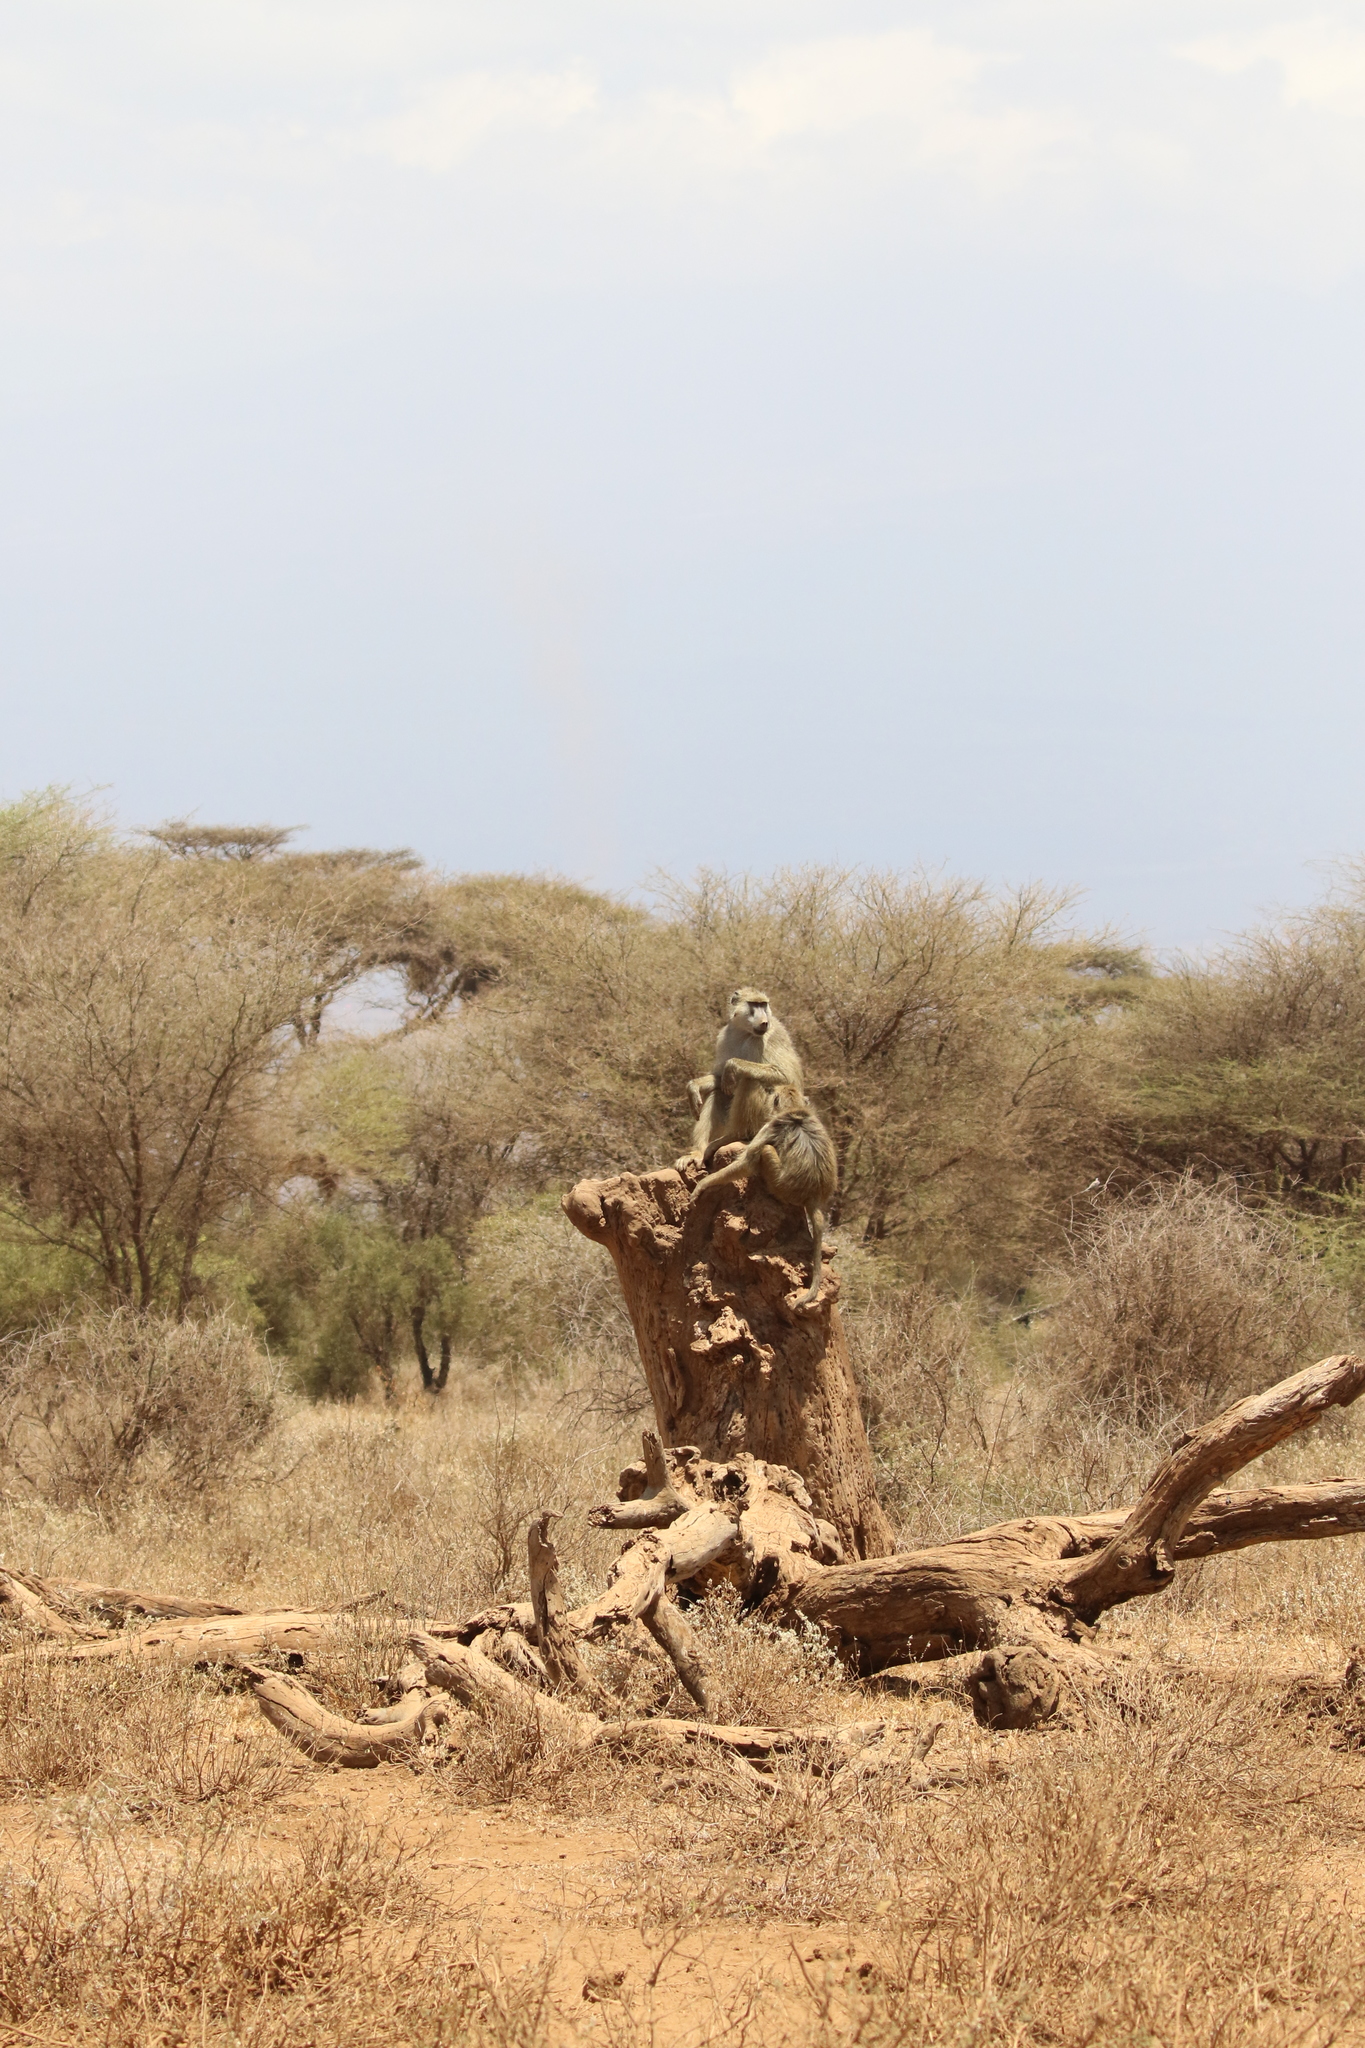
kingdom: Animalia
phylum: Chordata
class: Mammalia
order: Primates
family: Cercopithecidae
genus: Papio
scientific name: Papio cynocephalus
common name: Yellow baboon
